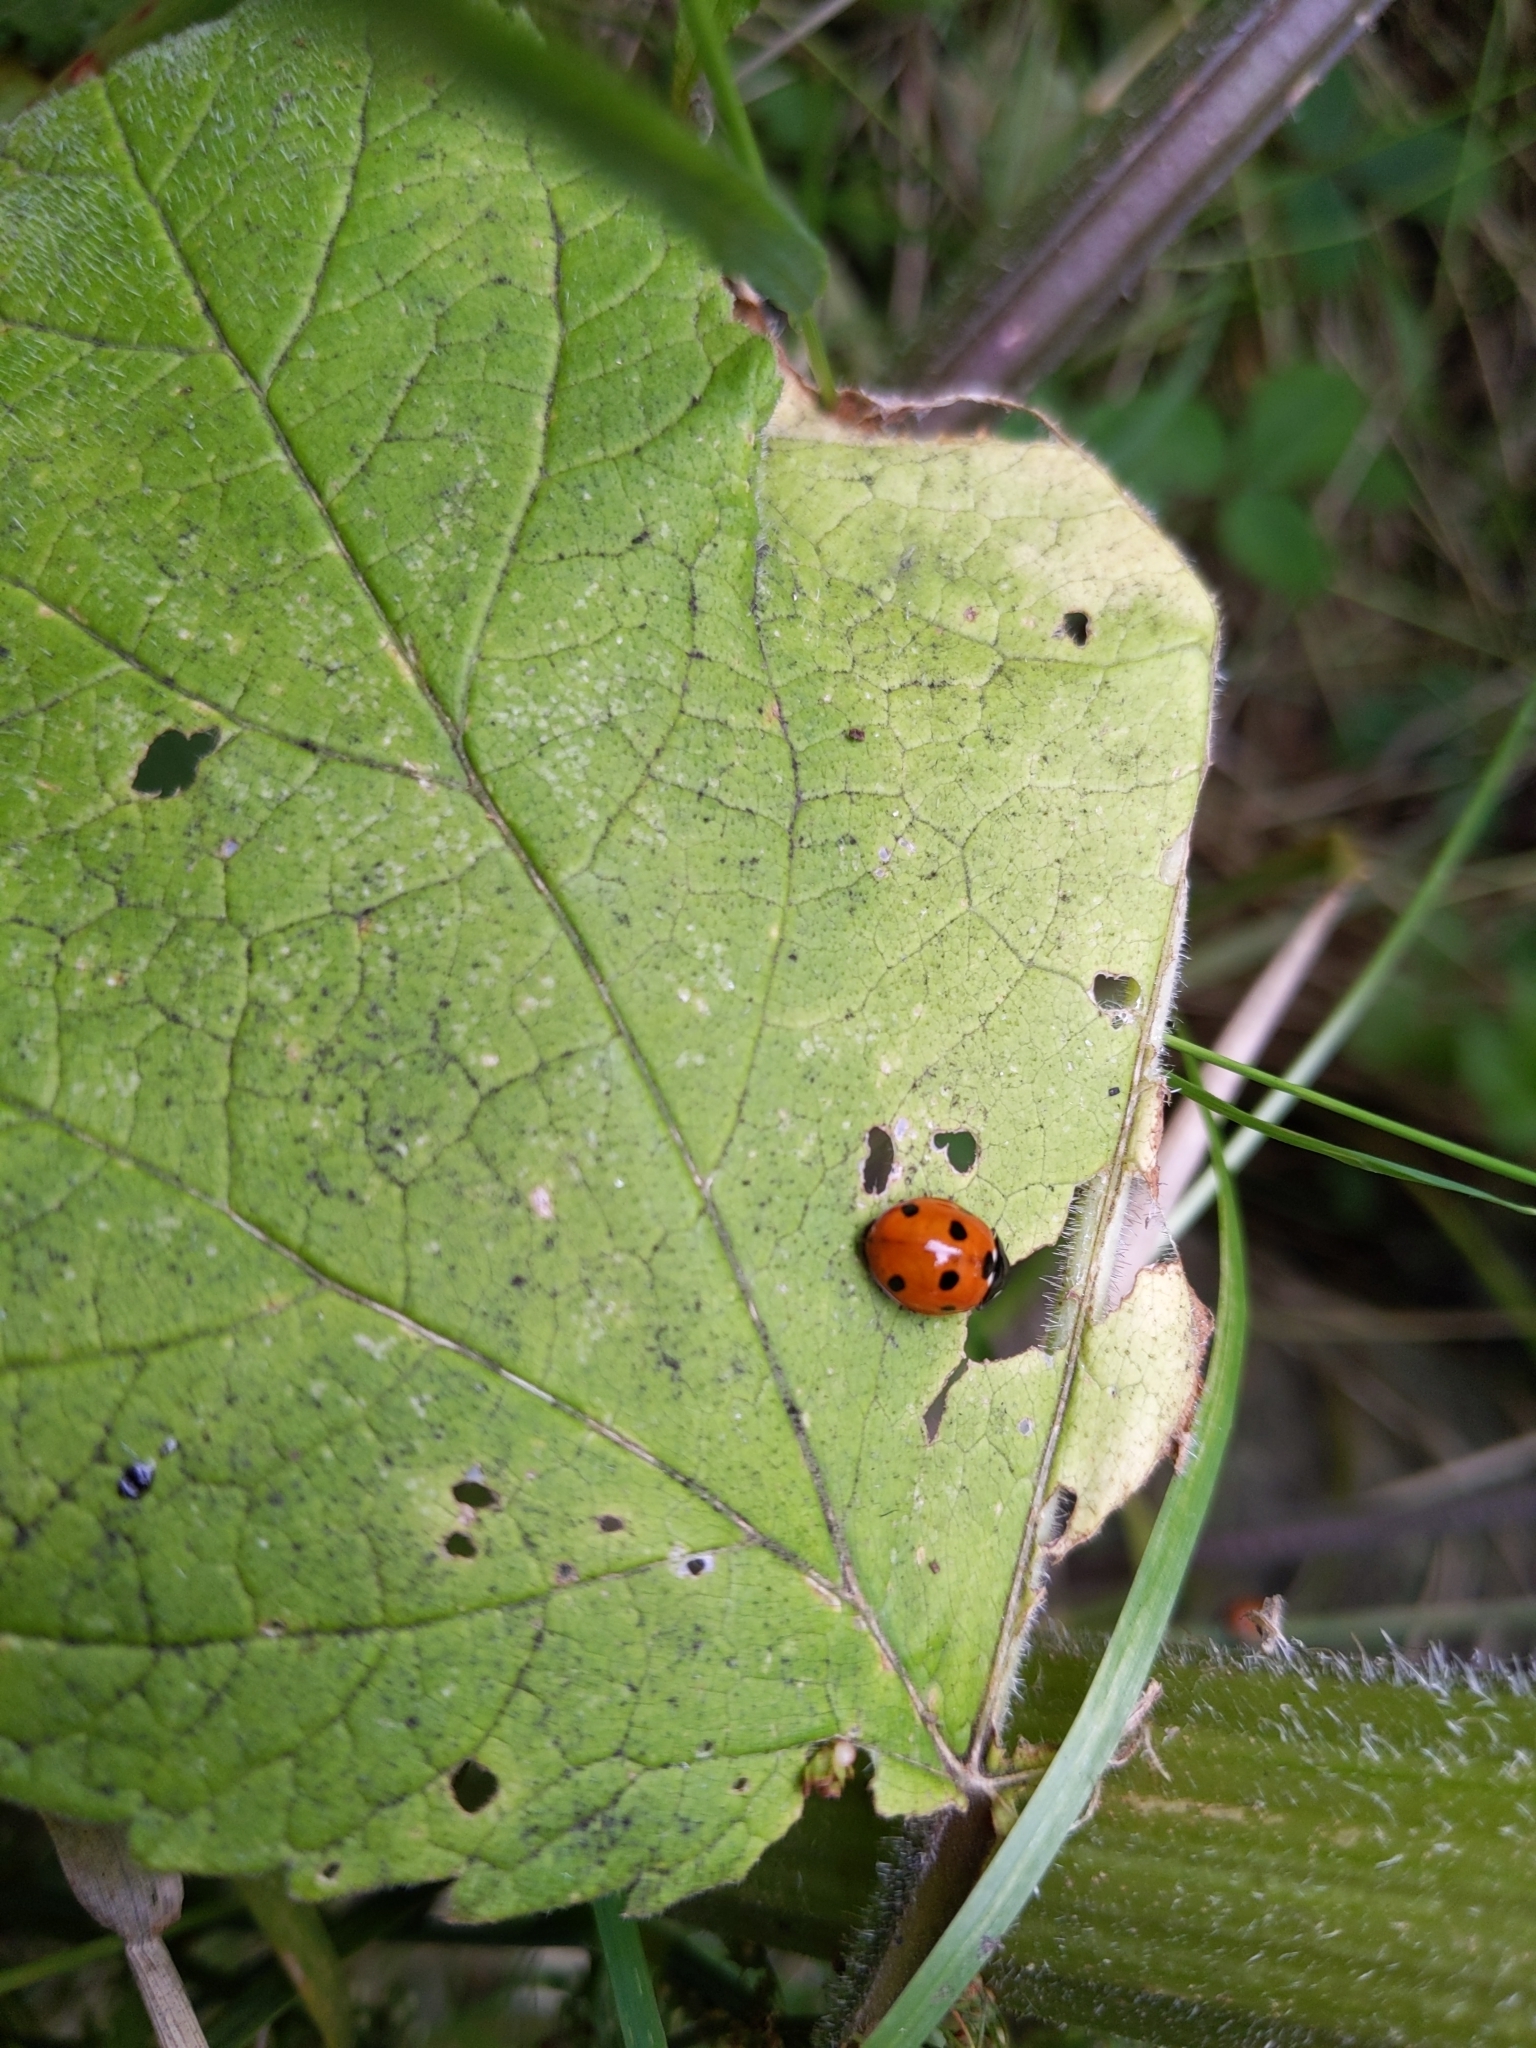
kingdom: Animalia
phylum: Arthropoda
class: Insecta
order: Coleoptera
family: Coccinellidae
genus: Coccinella
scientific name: Coccinella septempunctata
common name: Sevenspotted lady beetle
